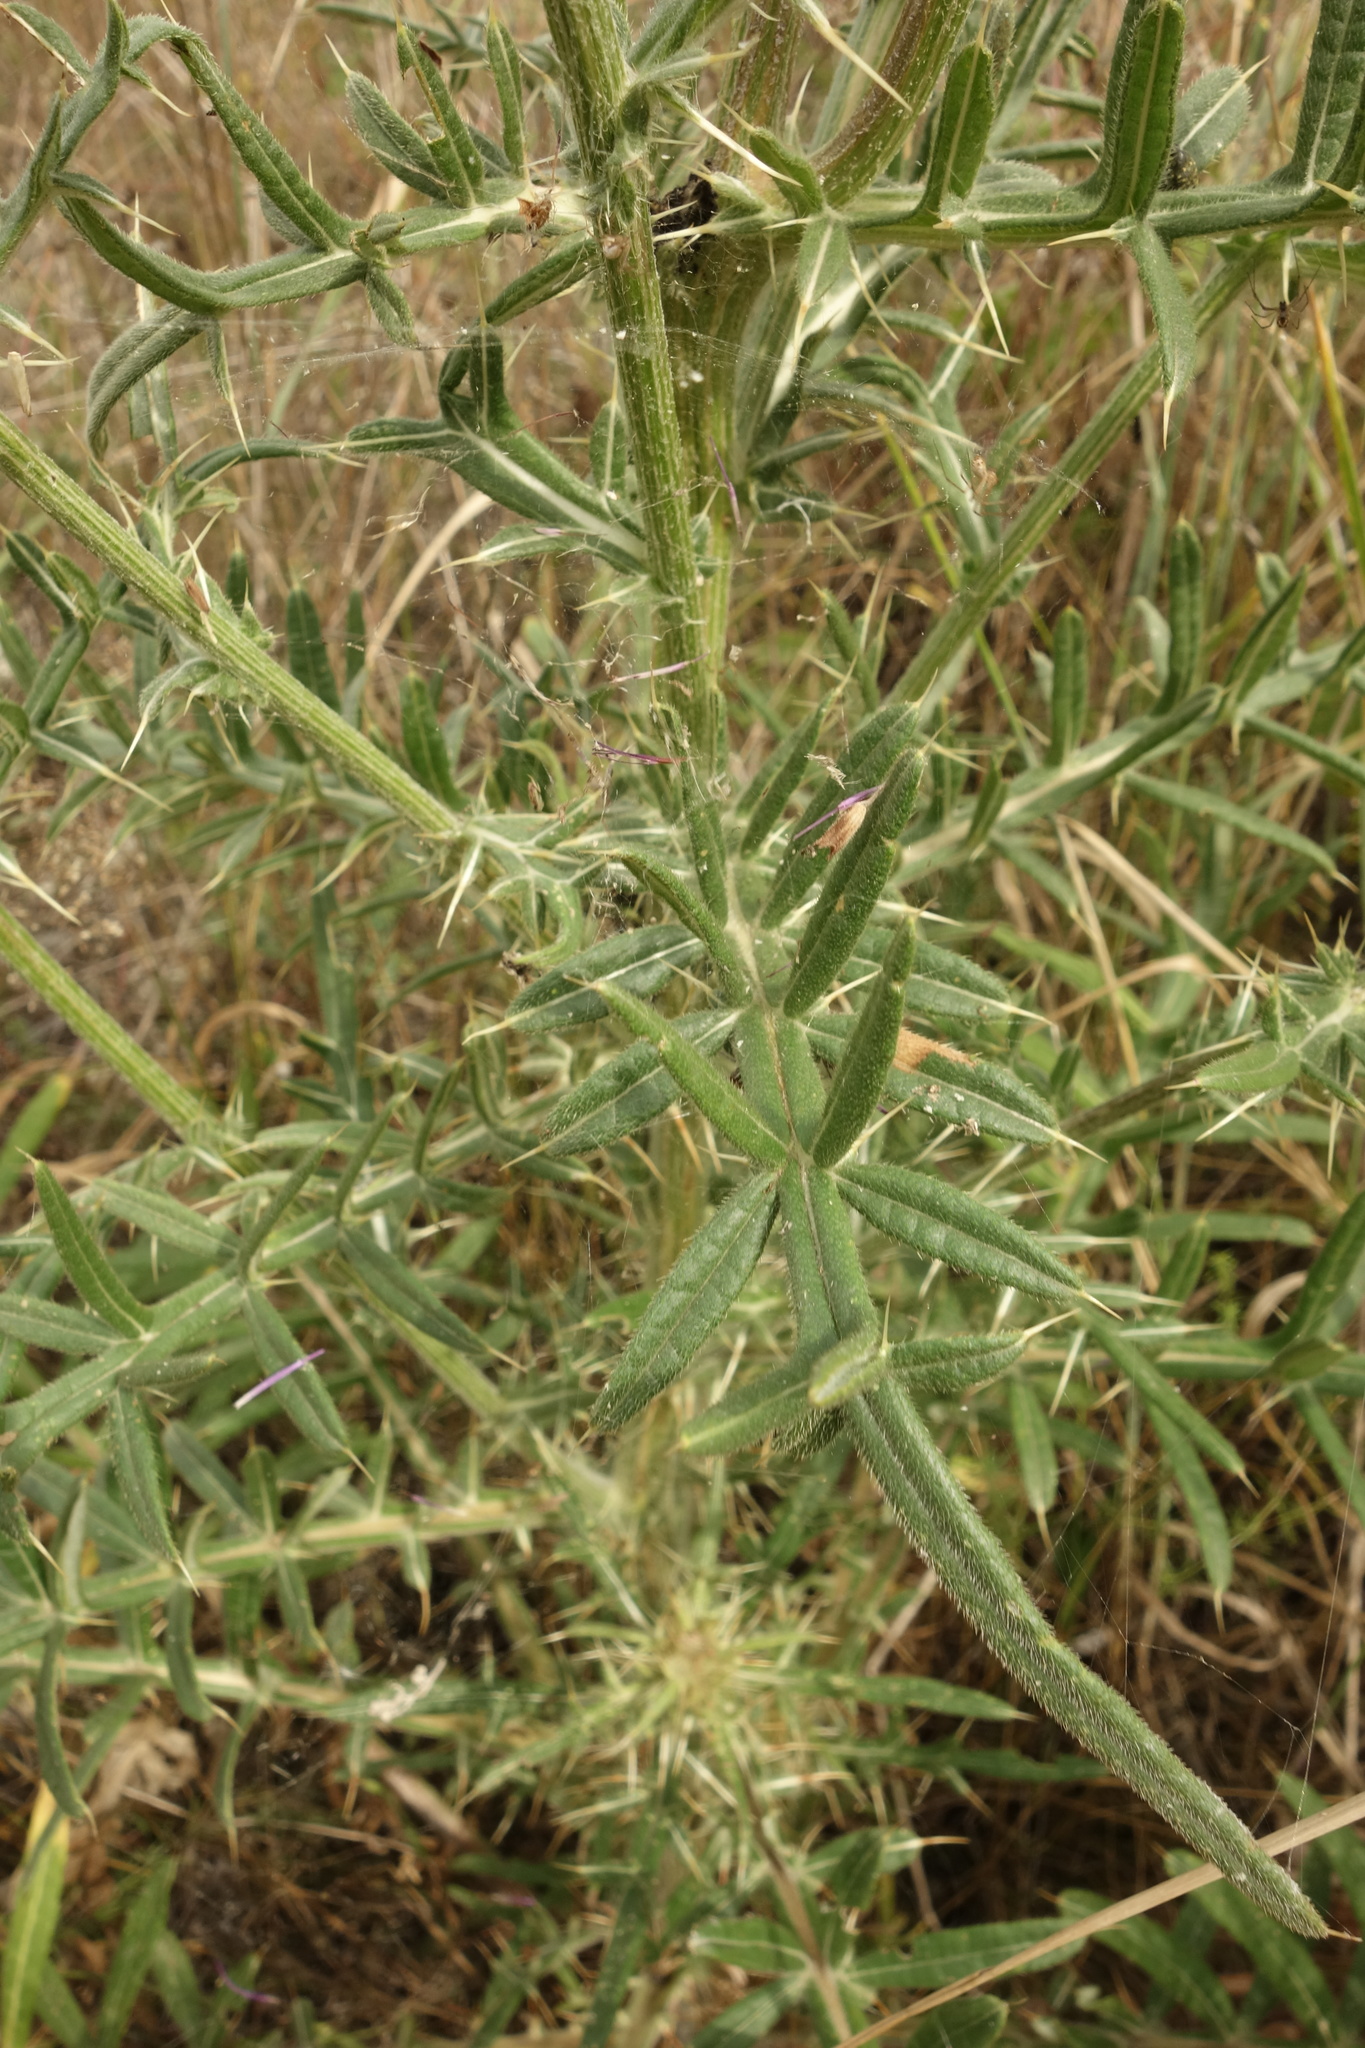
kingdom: Plantae
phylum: Tracheophyta
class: Magnoliopsida
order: Asterales
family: Asteraceae
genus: Lophiolepis
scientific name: Lophiolepis decussata
